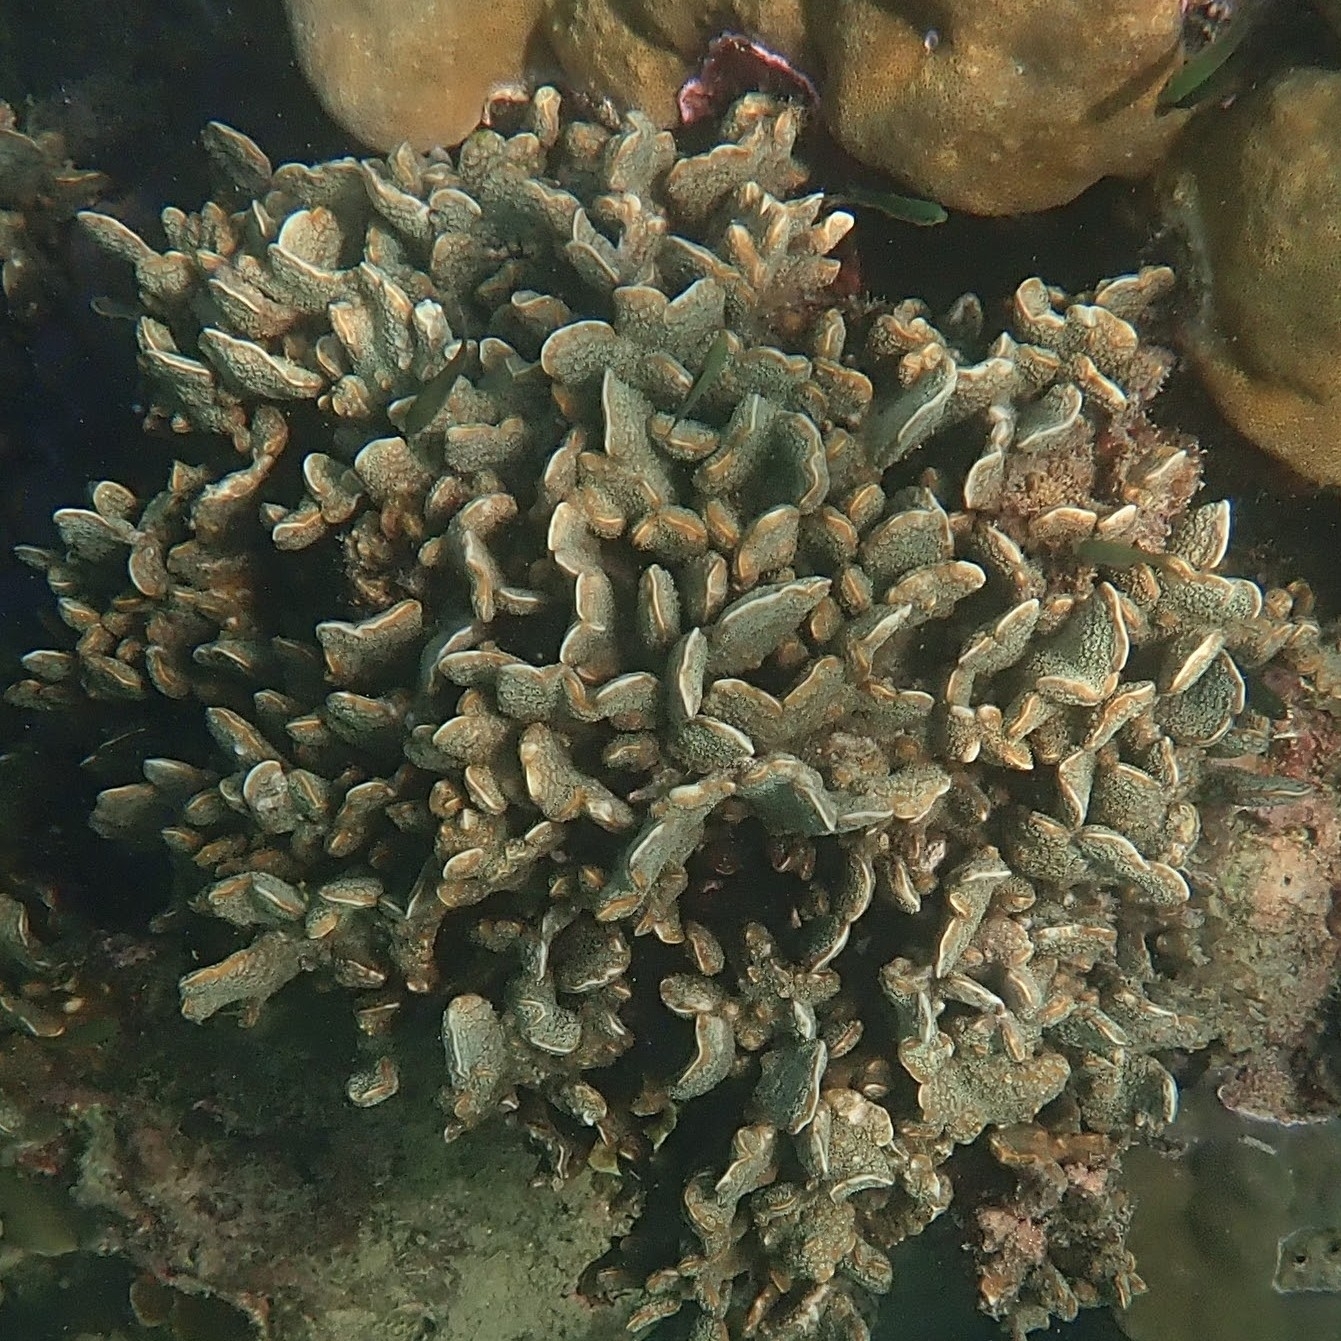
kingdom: Animalia
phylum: Cnidaria
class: Anthozoa
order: Scleractinia
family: Agariciidae
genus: Pavona
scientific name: Pavona decussata
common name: Leaf coral
